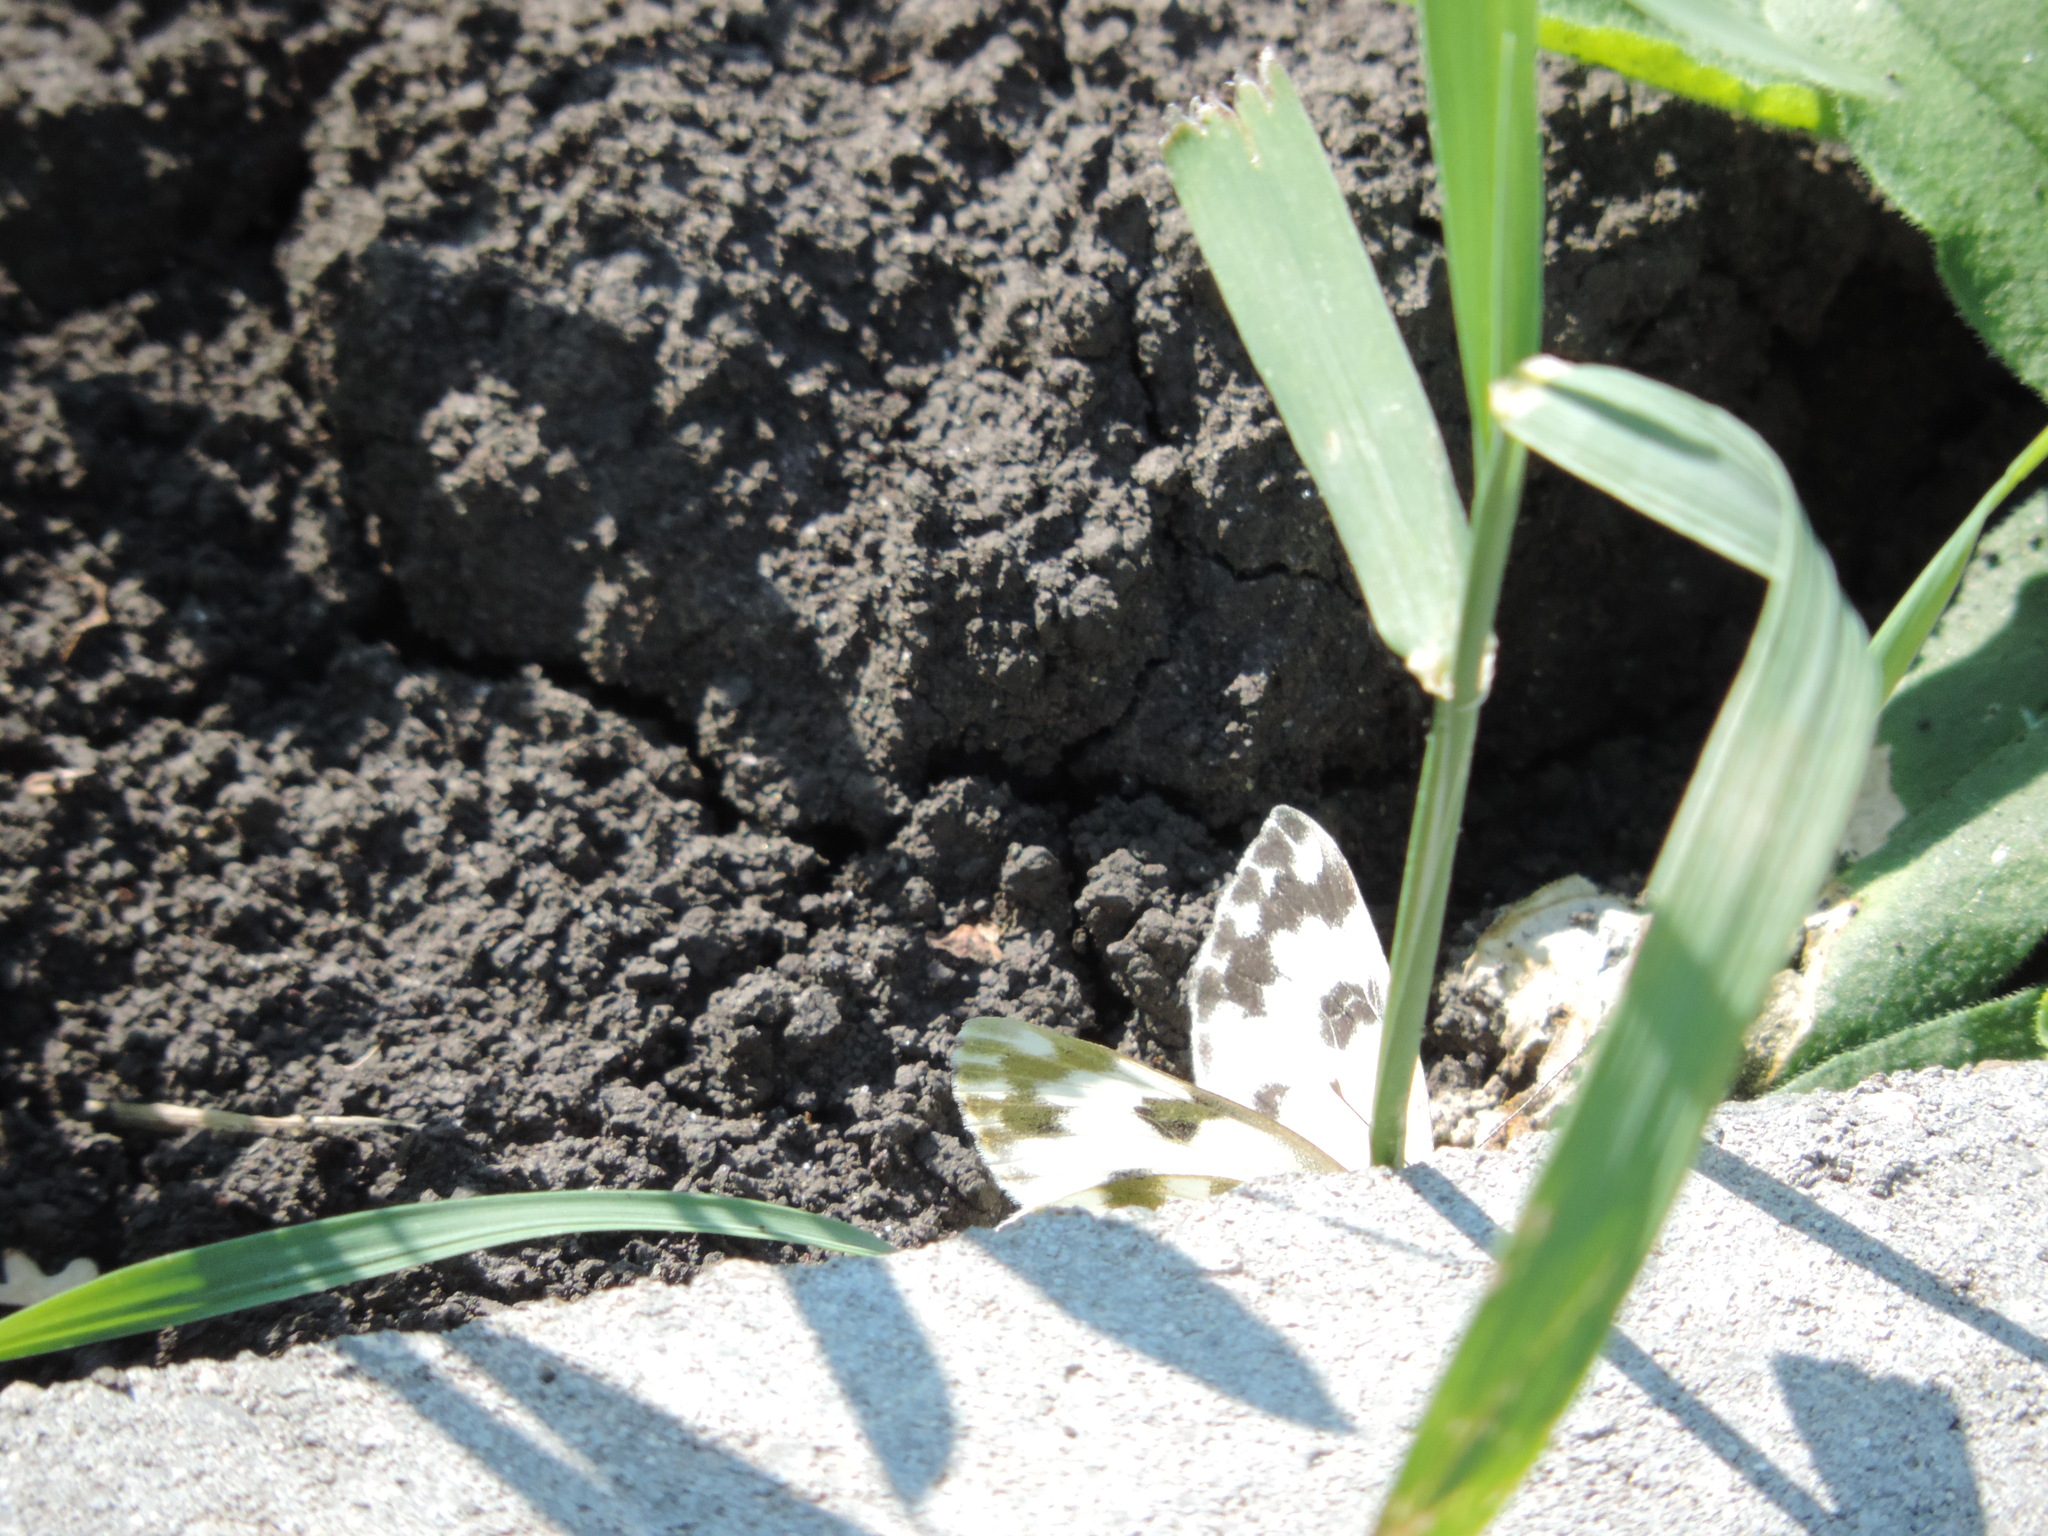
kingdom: Animalia
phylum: Arthropoda
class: Insecta
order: Lepidoptera
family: Pieridae
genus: Pontia
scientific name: Pontia edusa
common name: Eastern bath white
